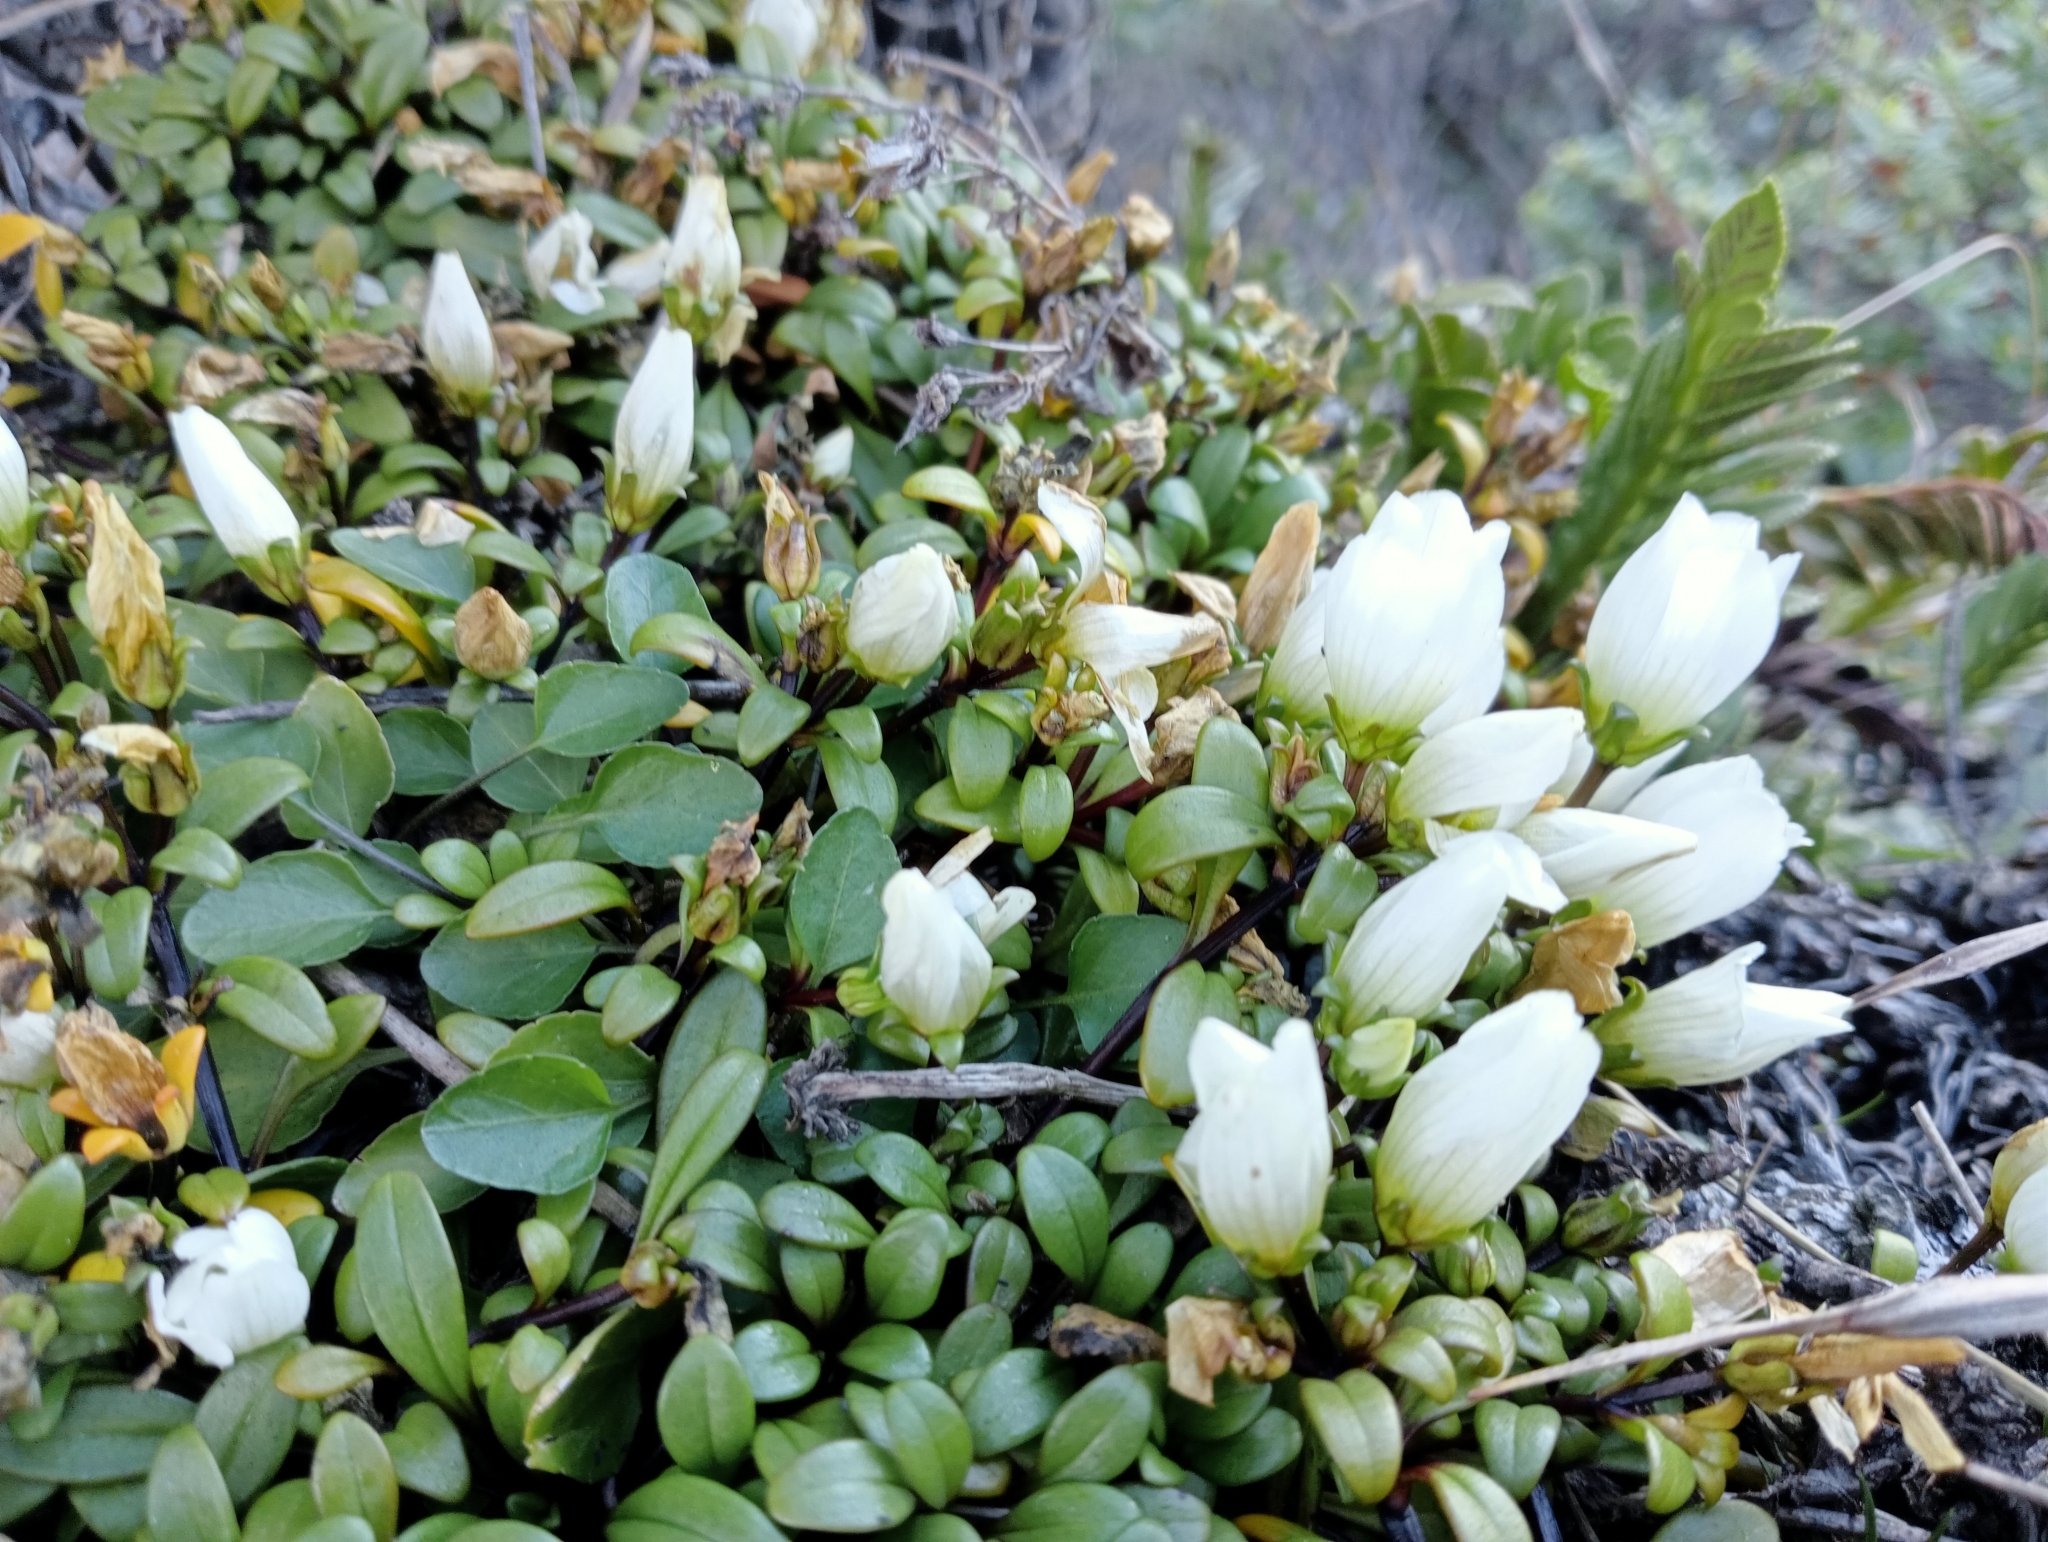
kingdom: Plantae
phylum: Tracheophyta
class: Magnoliopsida
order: Gentianales
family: Gentianaceae
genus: Gentianella
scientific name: Gentianella saxosa
